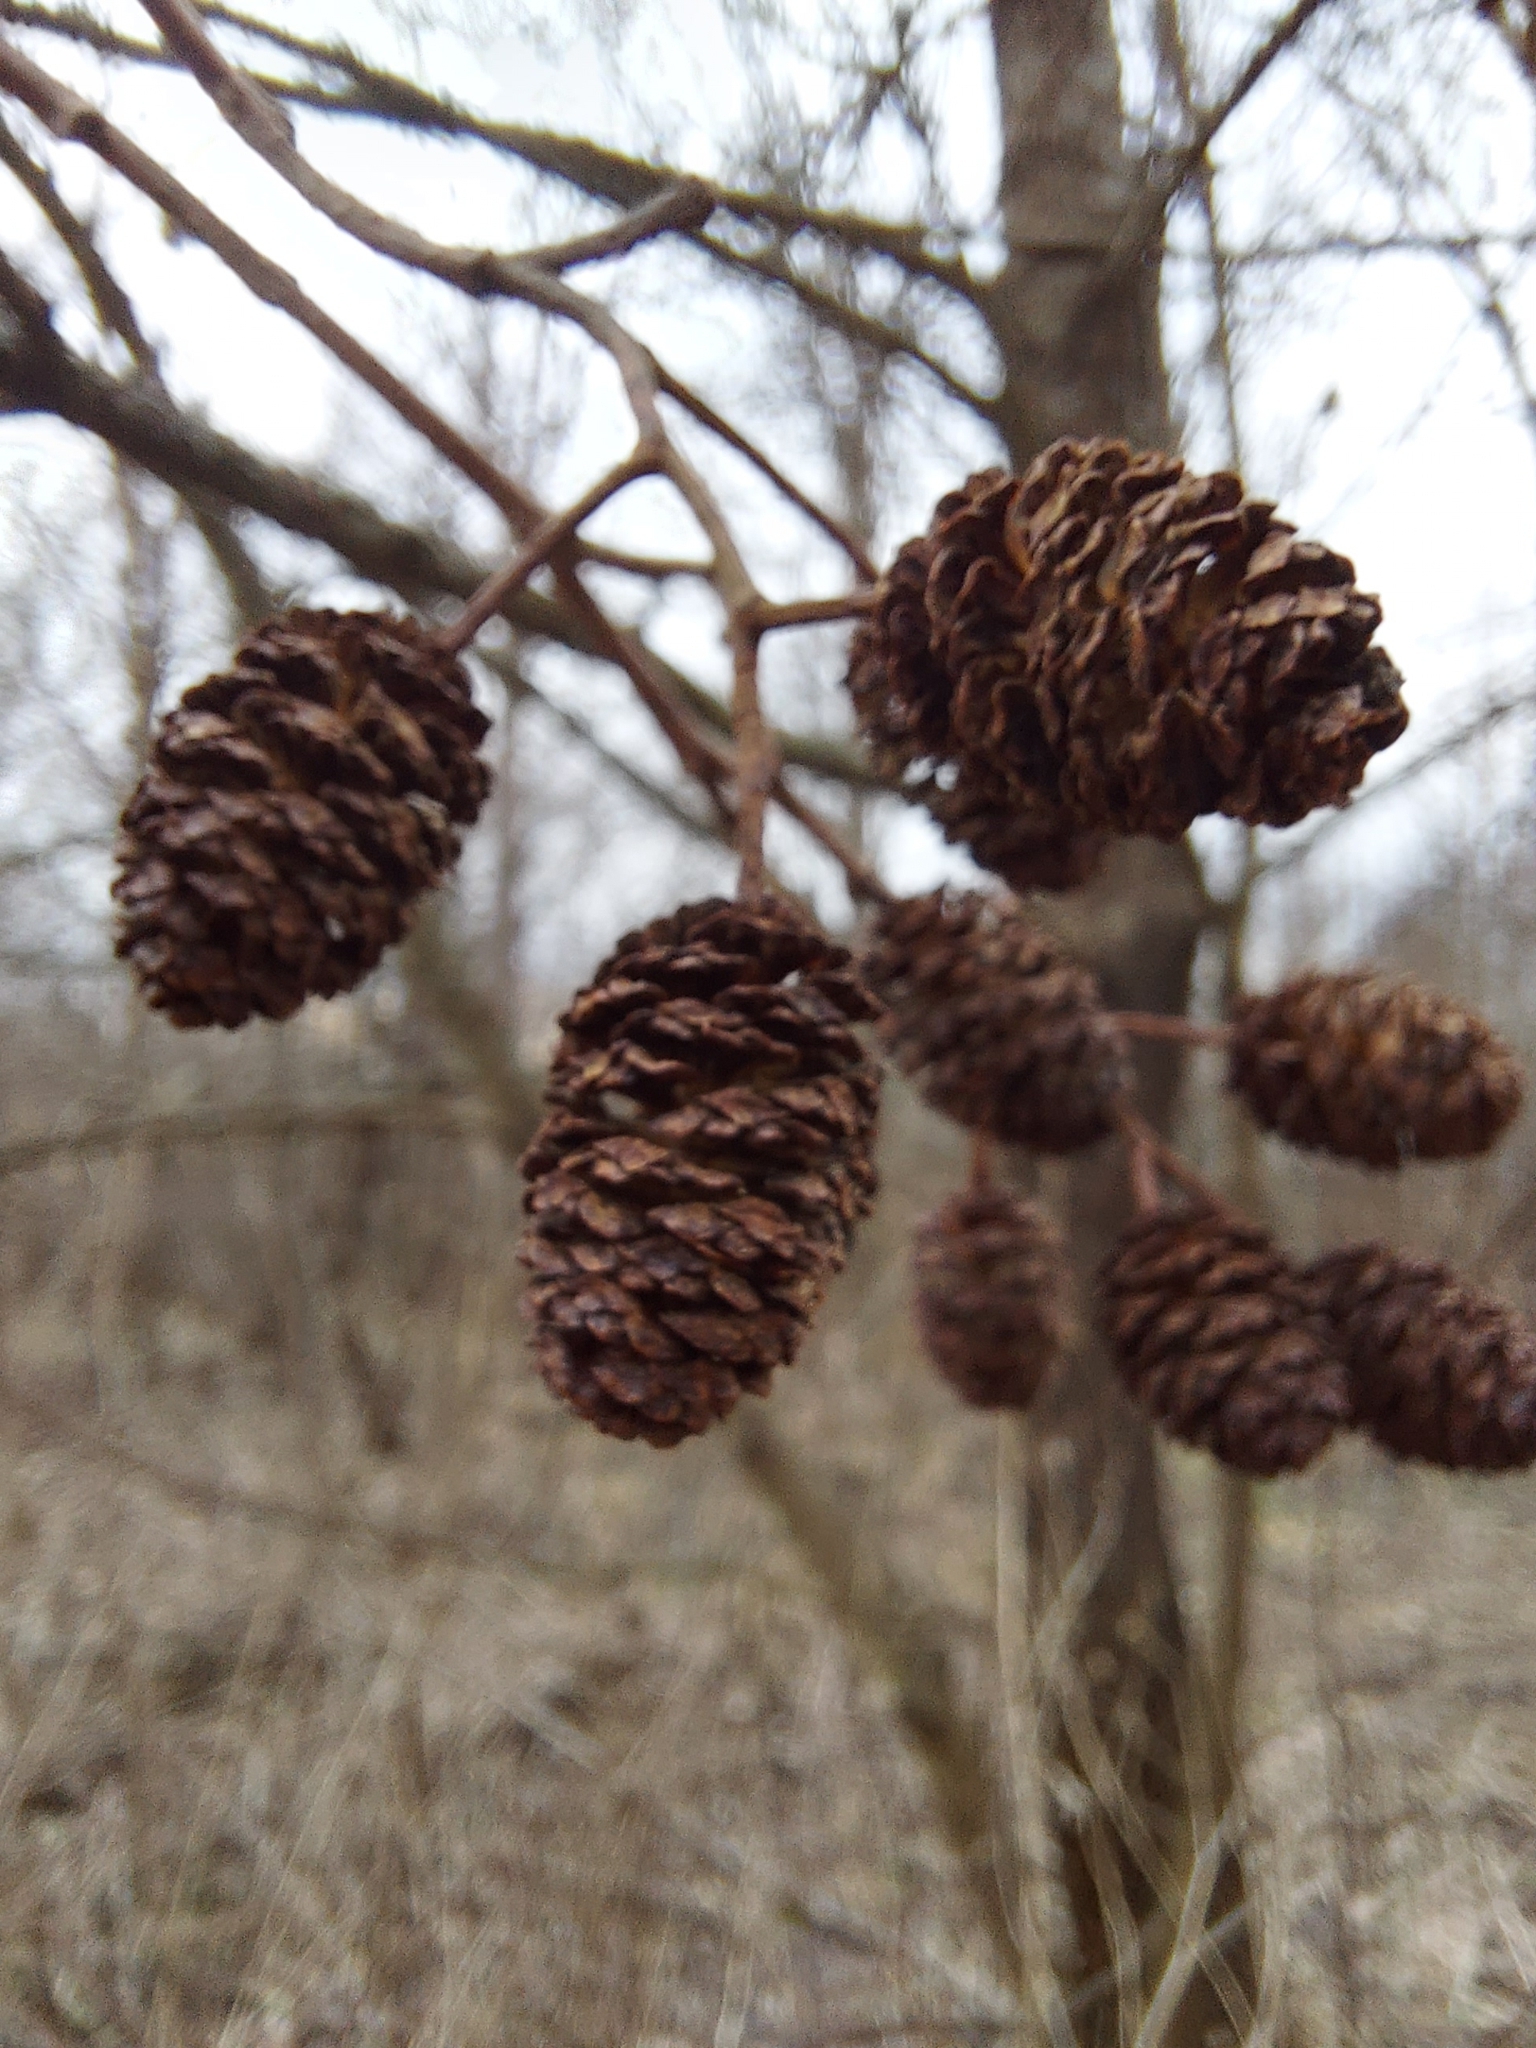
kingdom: Plantae
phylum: Tracheophyta
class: Magnoliopsida
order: Fagales
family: Betulaceae
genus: Alnus
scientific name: Alnus glutinosa
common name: Black alder
